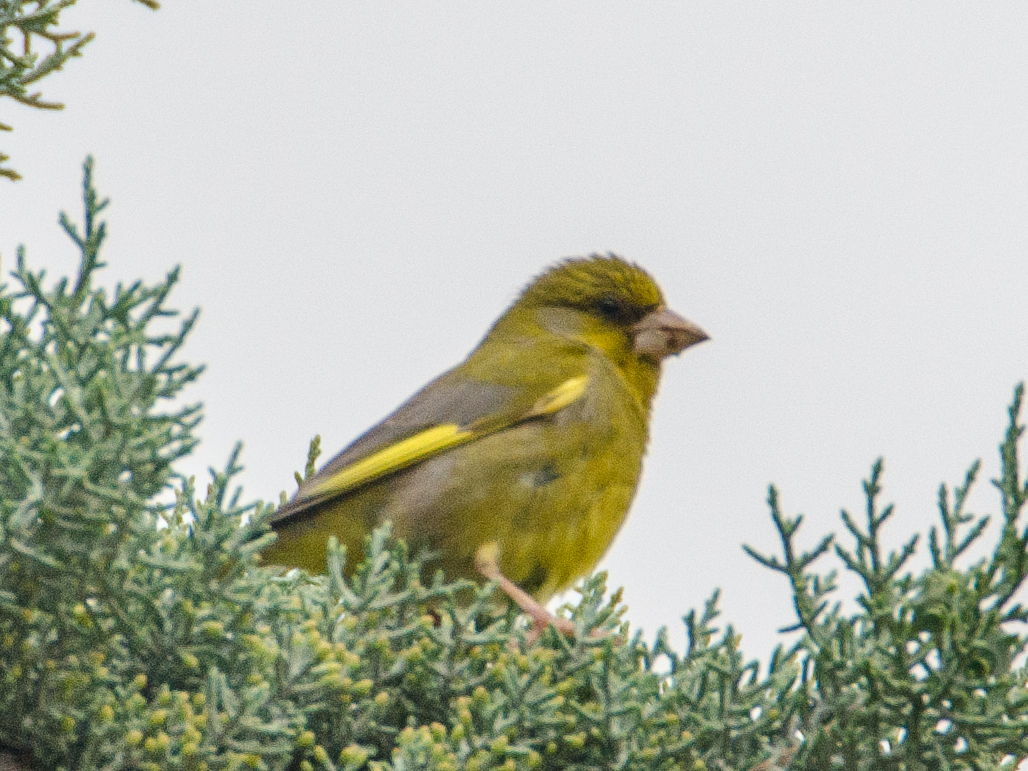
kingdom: Plantae
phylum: Tracheophyta
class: Liliopsida
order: Poales
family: Poaceae
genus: Chloris
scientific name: Chloris chloris
